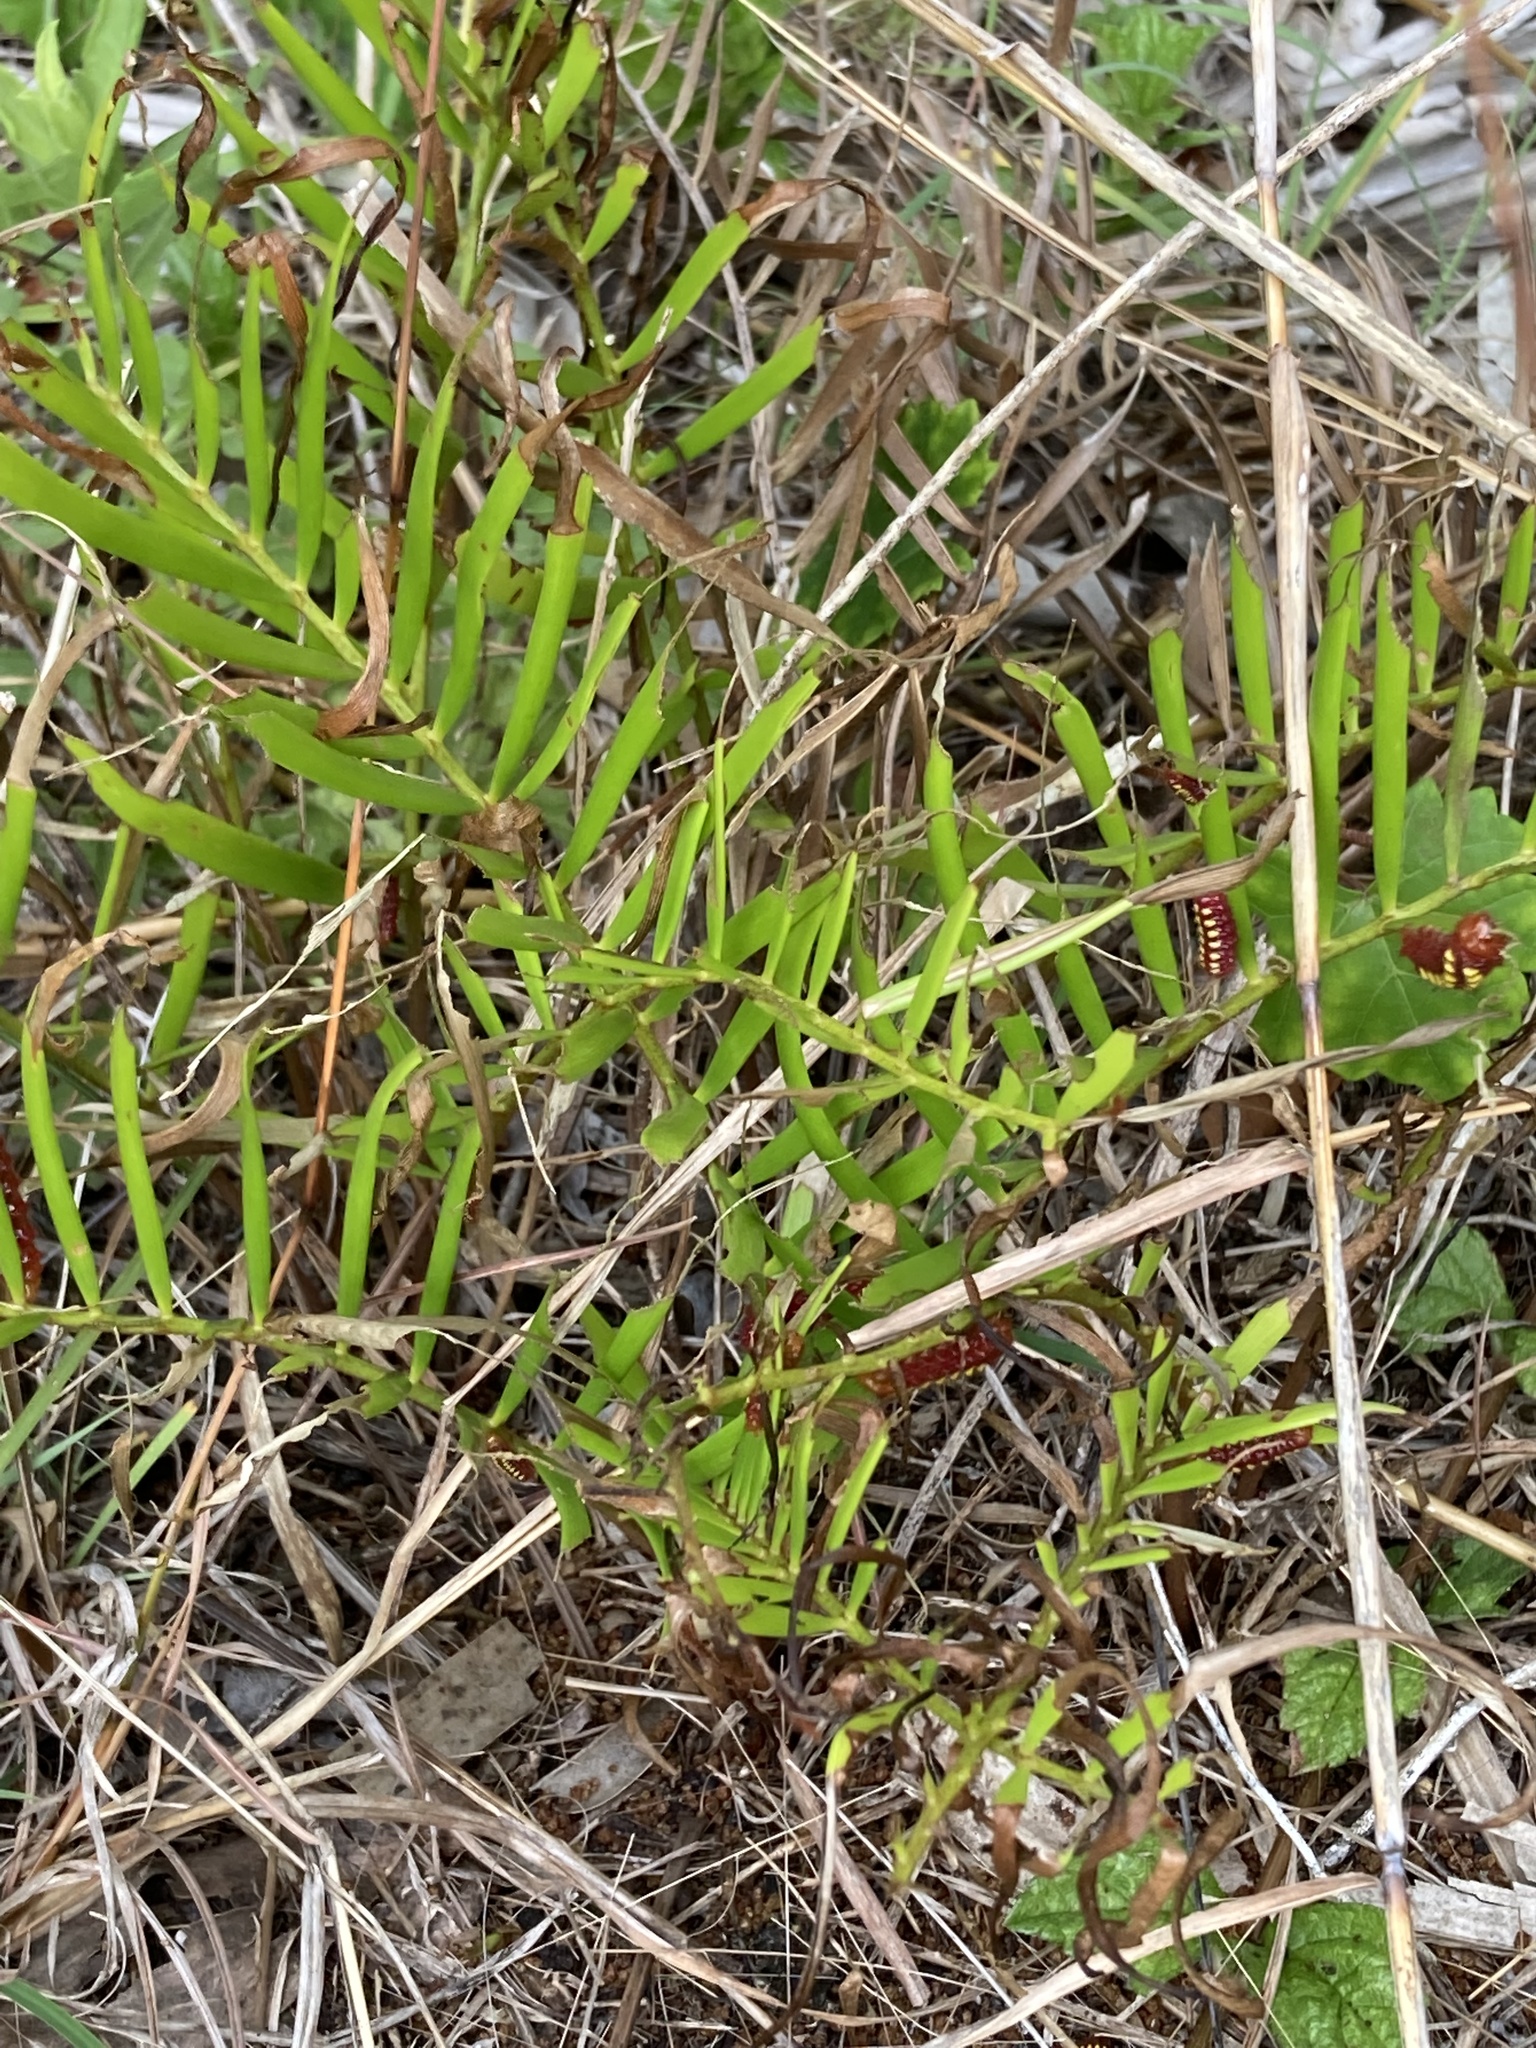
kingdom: Plantae
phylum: Tracheophyta
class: Cycadopsida
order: Cycadales
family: Zamiaceae
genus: Zamia
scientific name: Zamia integrifolia
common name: Florida arrowroot
